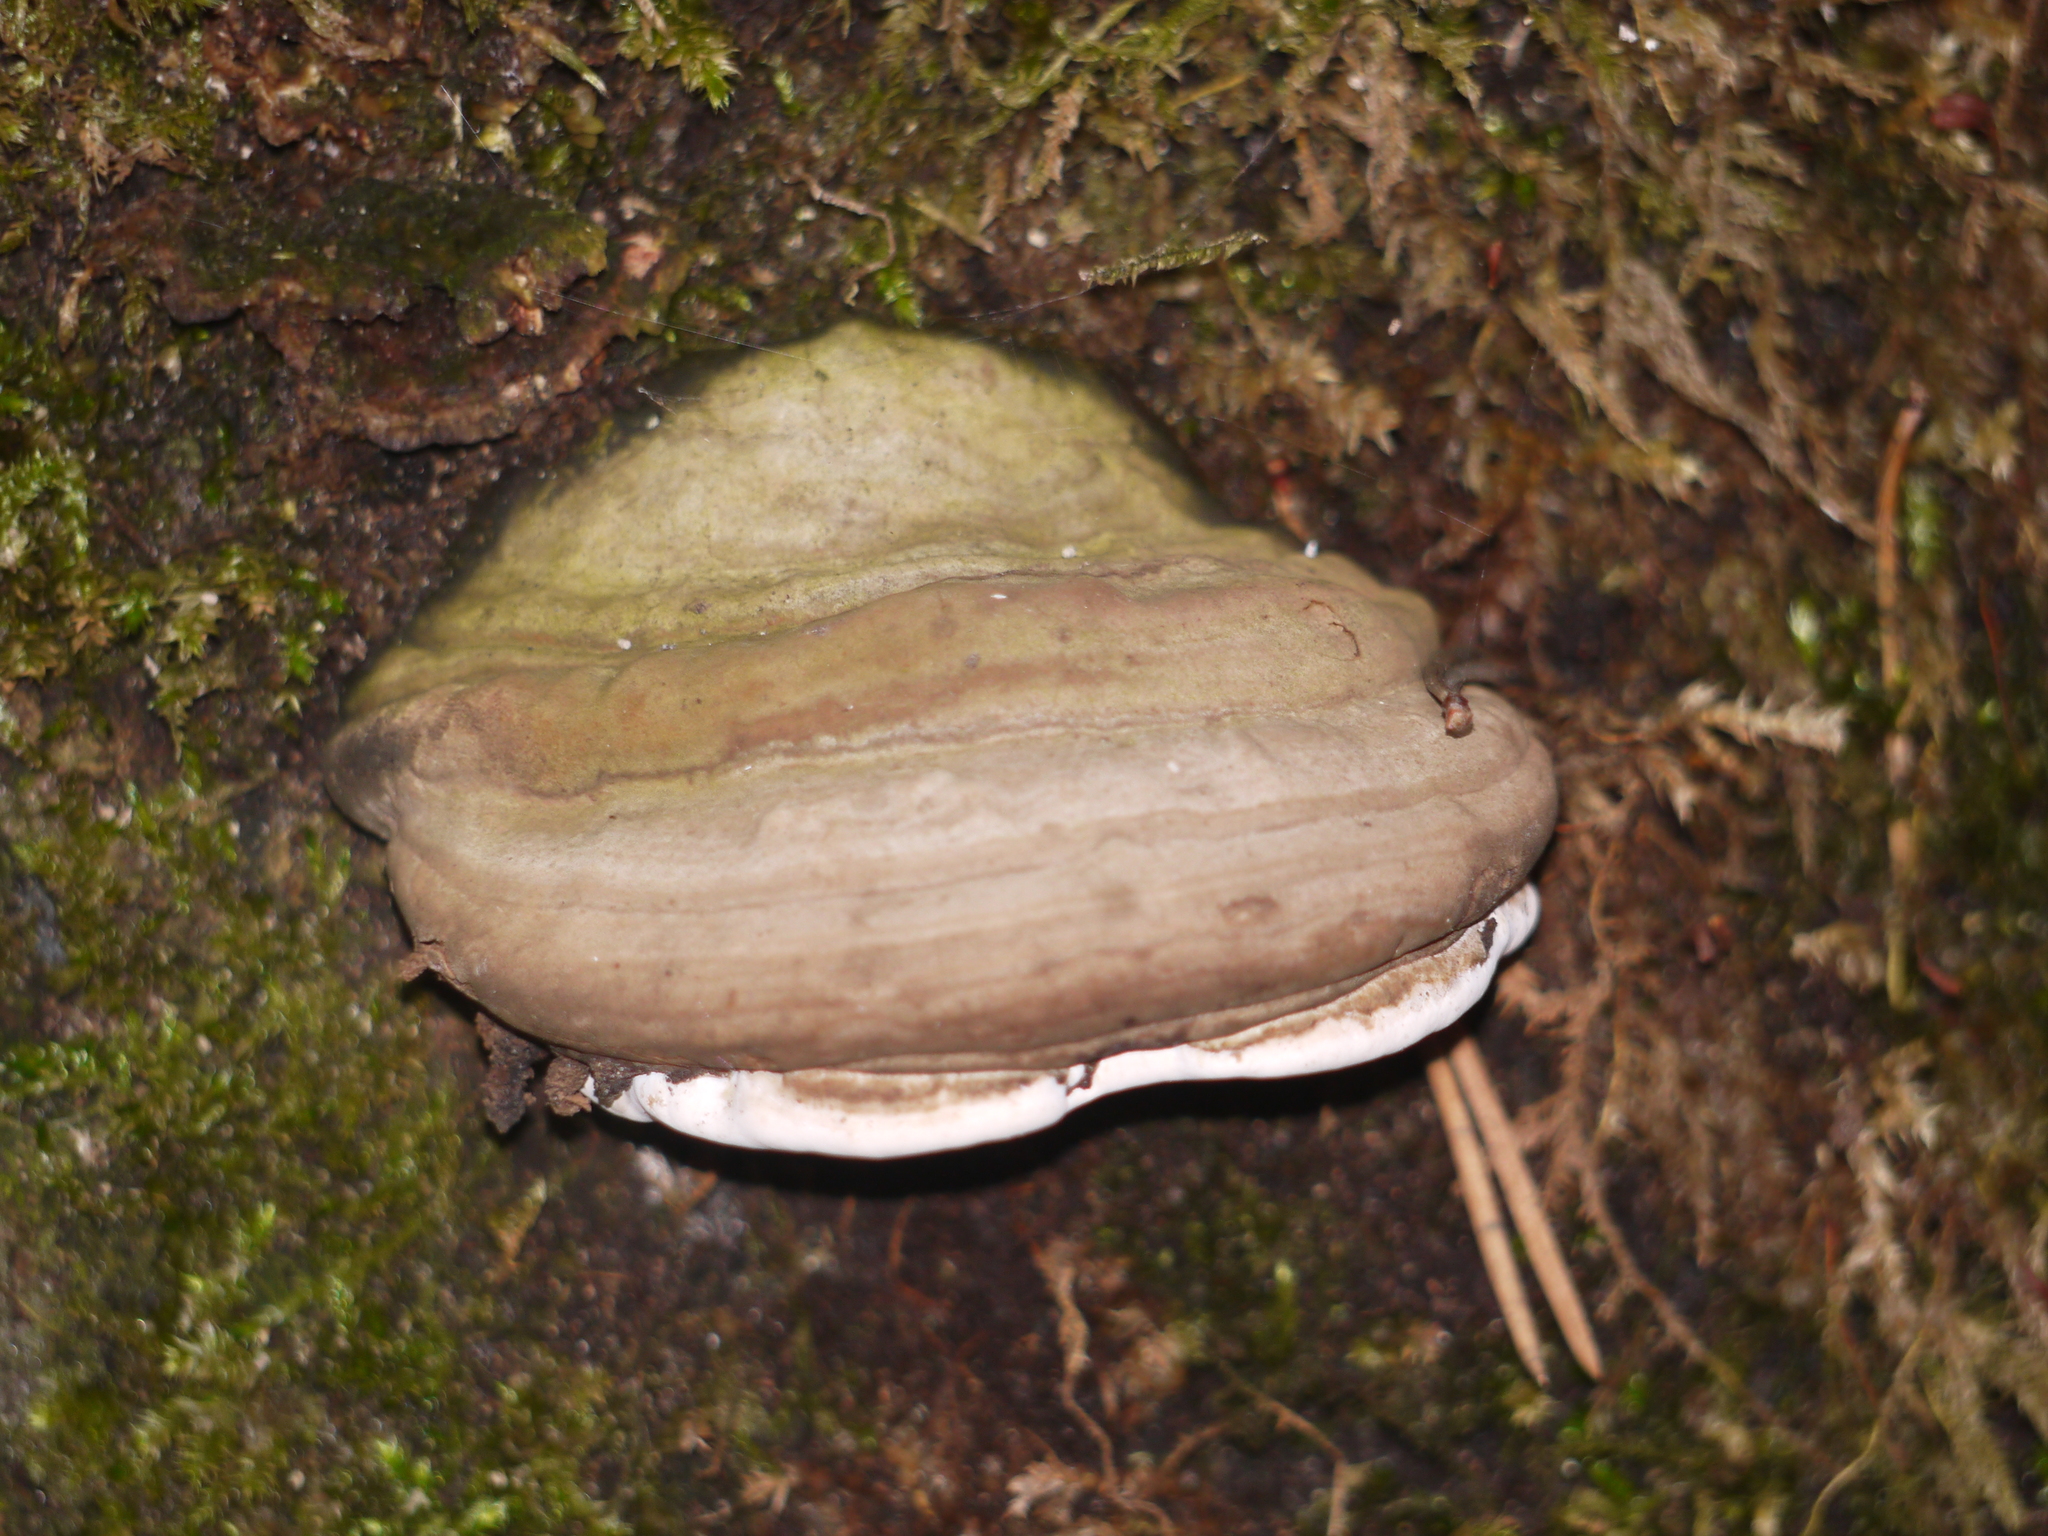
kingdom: Fungi
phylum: Basidiomycota
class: Agaricomycetes
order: Polyporales
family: Polyporaceae
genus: Fomes
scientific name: Fomes fomentarius
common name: Hoof fungus
